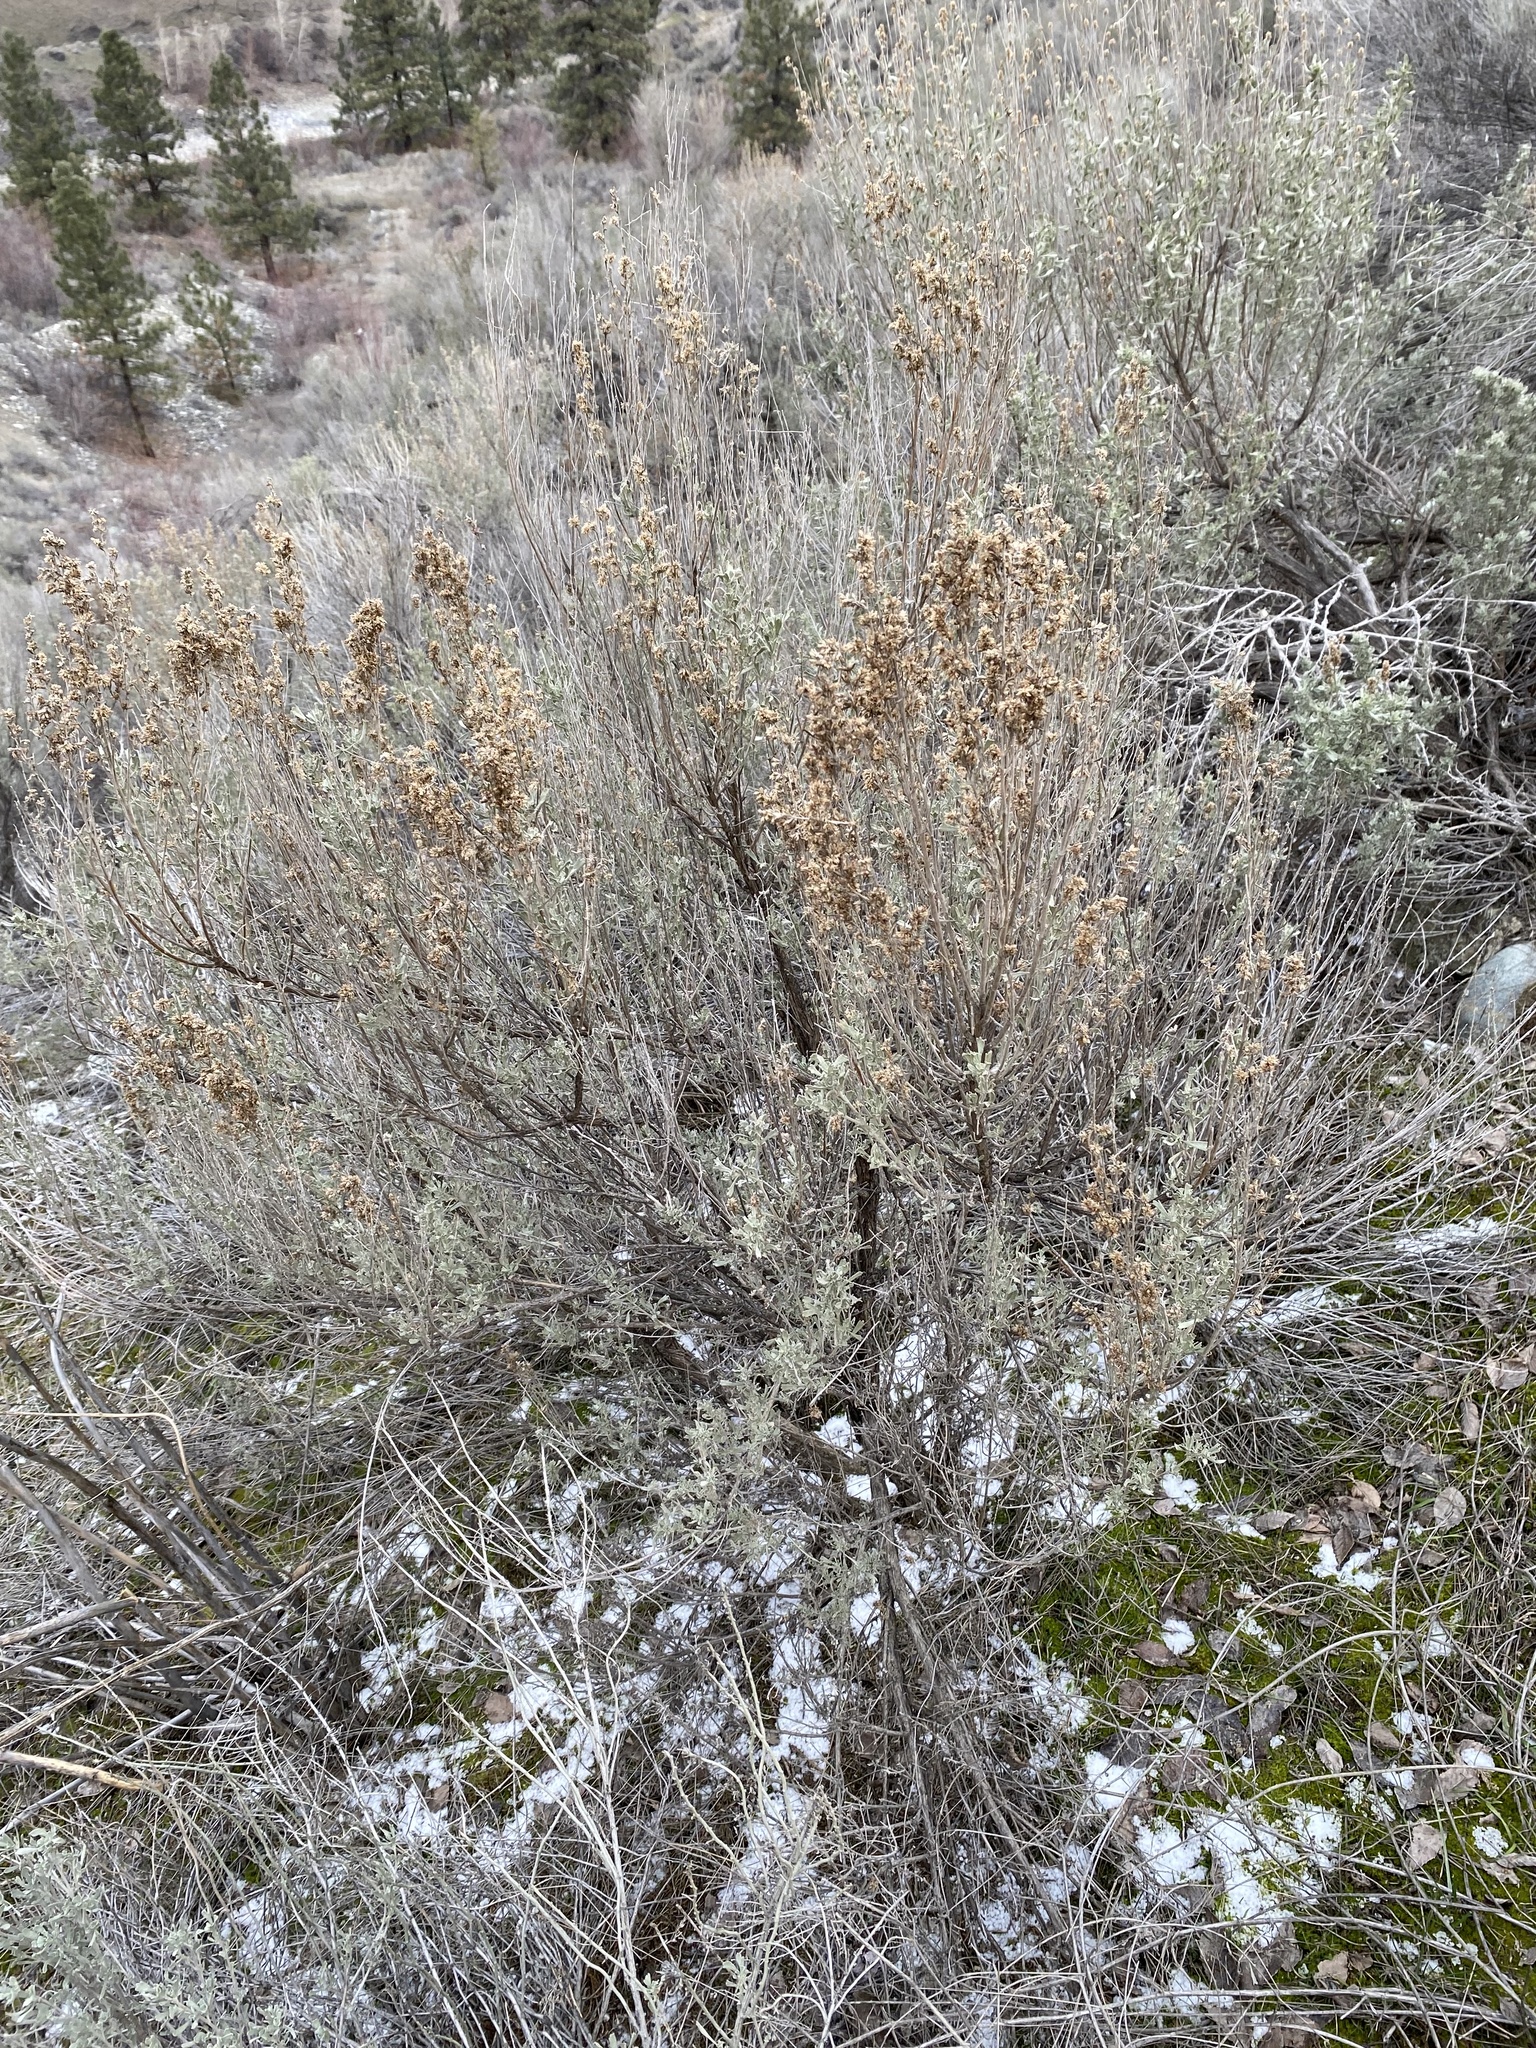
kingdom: Plantae
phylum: Tracheophyta
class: Magnoliopsida
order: Asterales
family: Asteraceae
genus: Artemisia
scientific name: Artemisia tridentata
